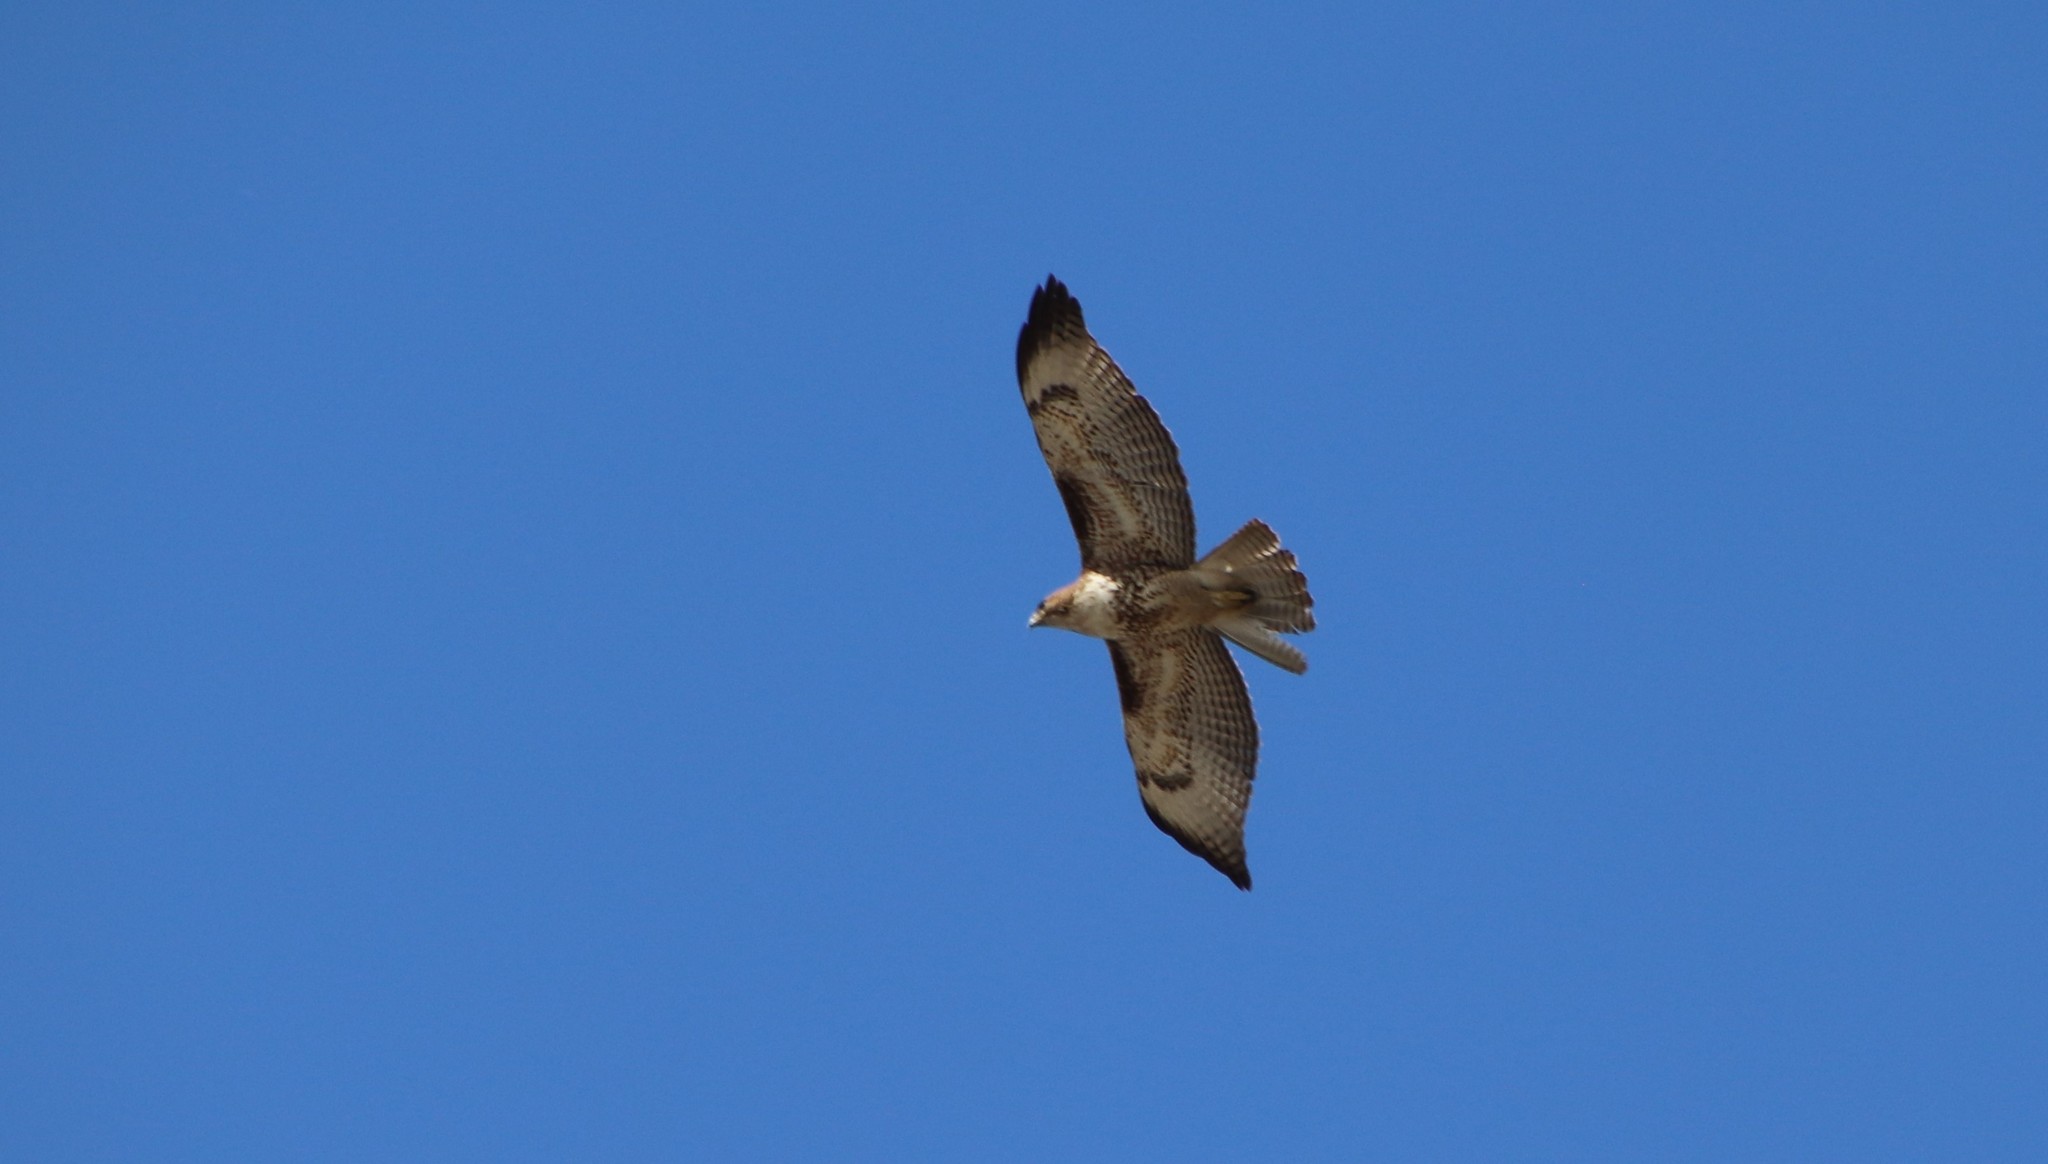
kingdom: Animalia
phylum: Chordata
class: Aves
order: Accipitriformes
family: Accipitridae
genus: Buteo
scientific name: Buteo jamaicensis
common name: Red-tailed hawk
